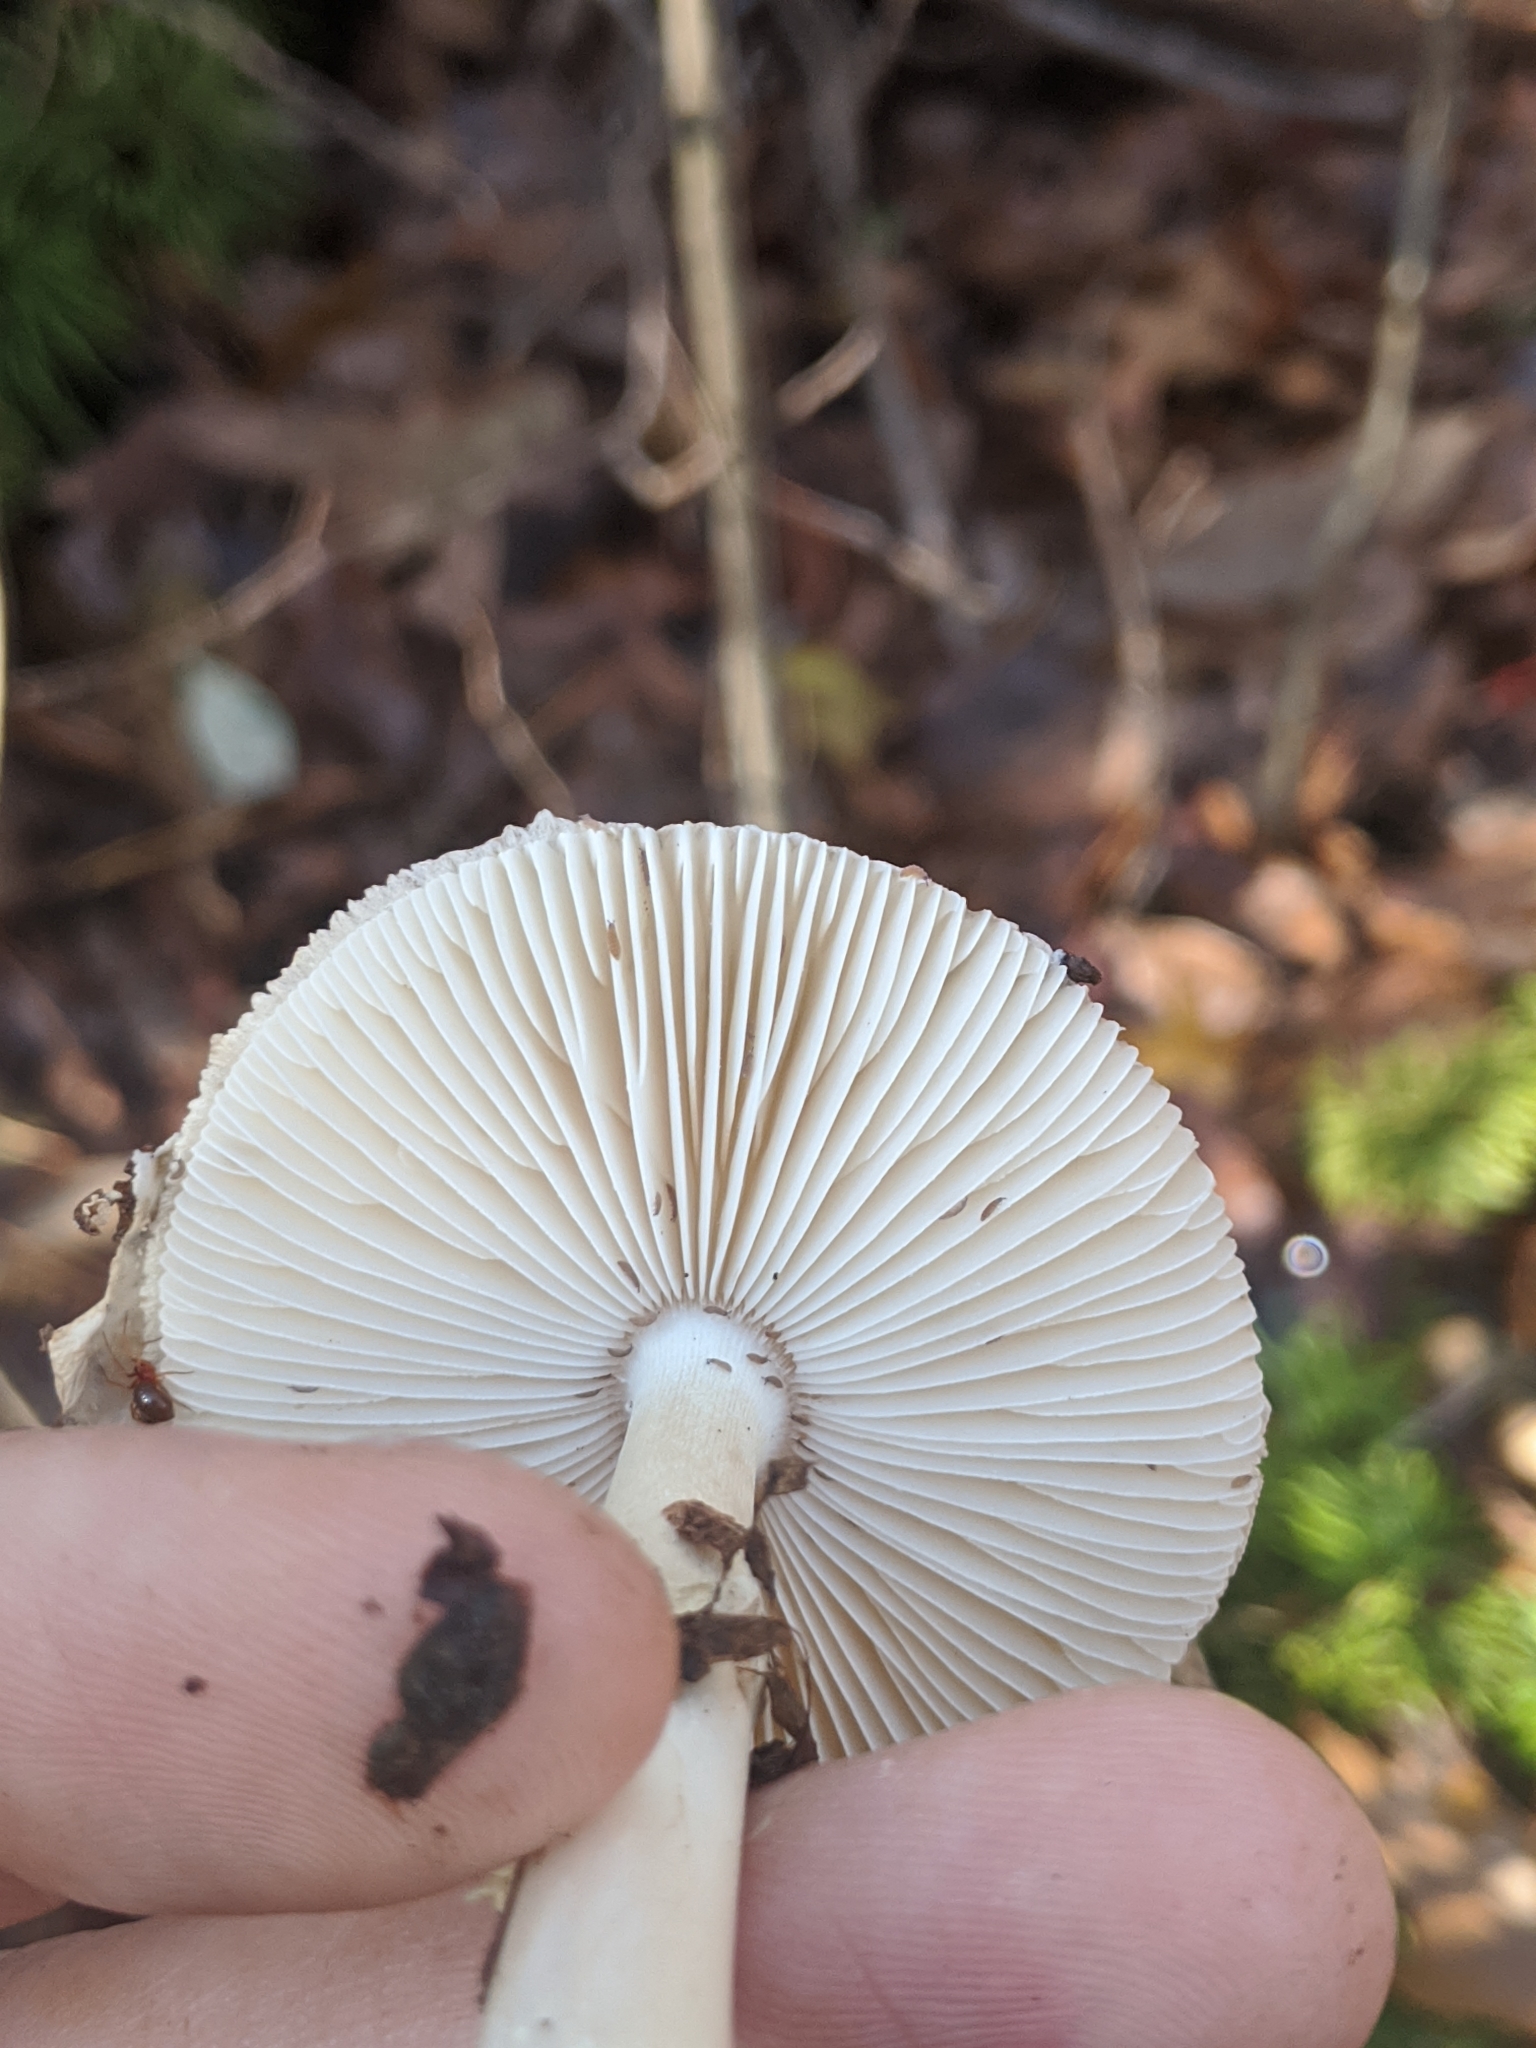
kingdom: Fungi
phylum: Basidiomycota
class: Agaricomycetes
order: Agaricales
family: Amanitaceae
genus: Amanita
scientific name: Amanita lavendula
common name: Coker's lavender staining amanita
